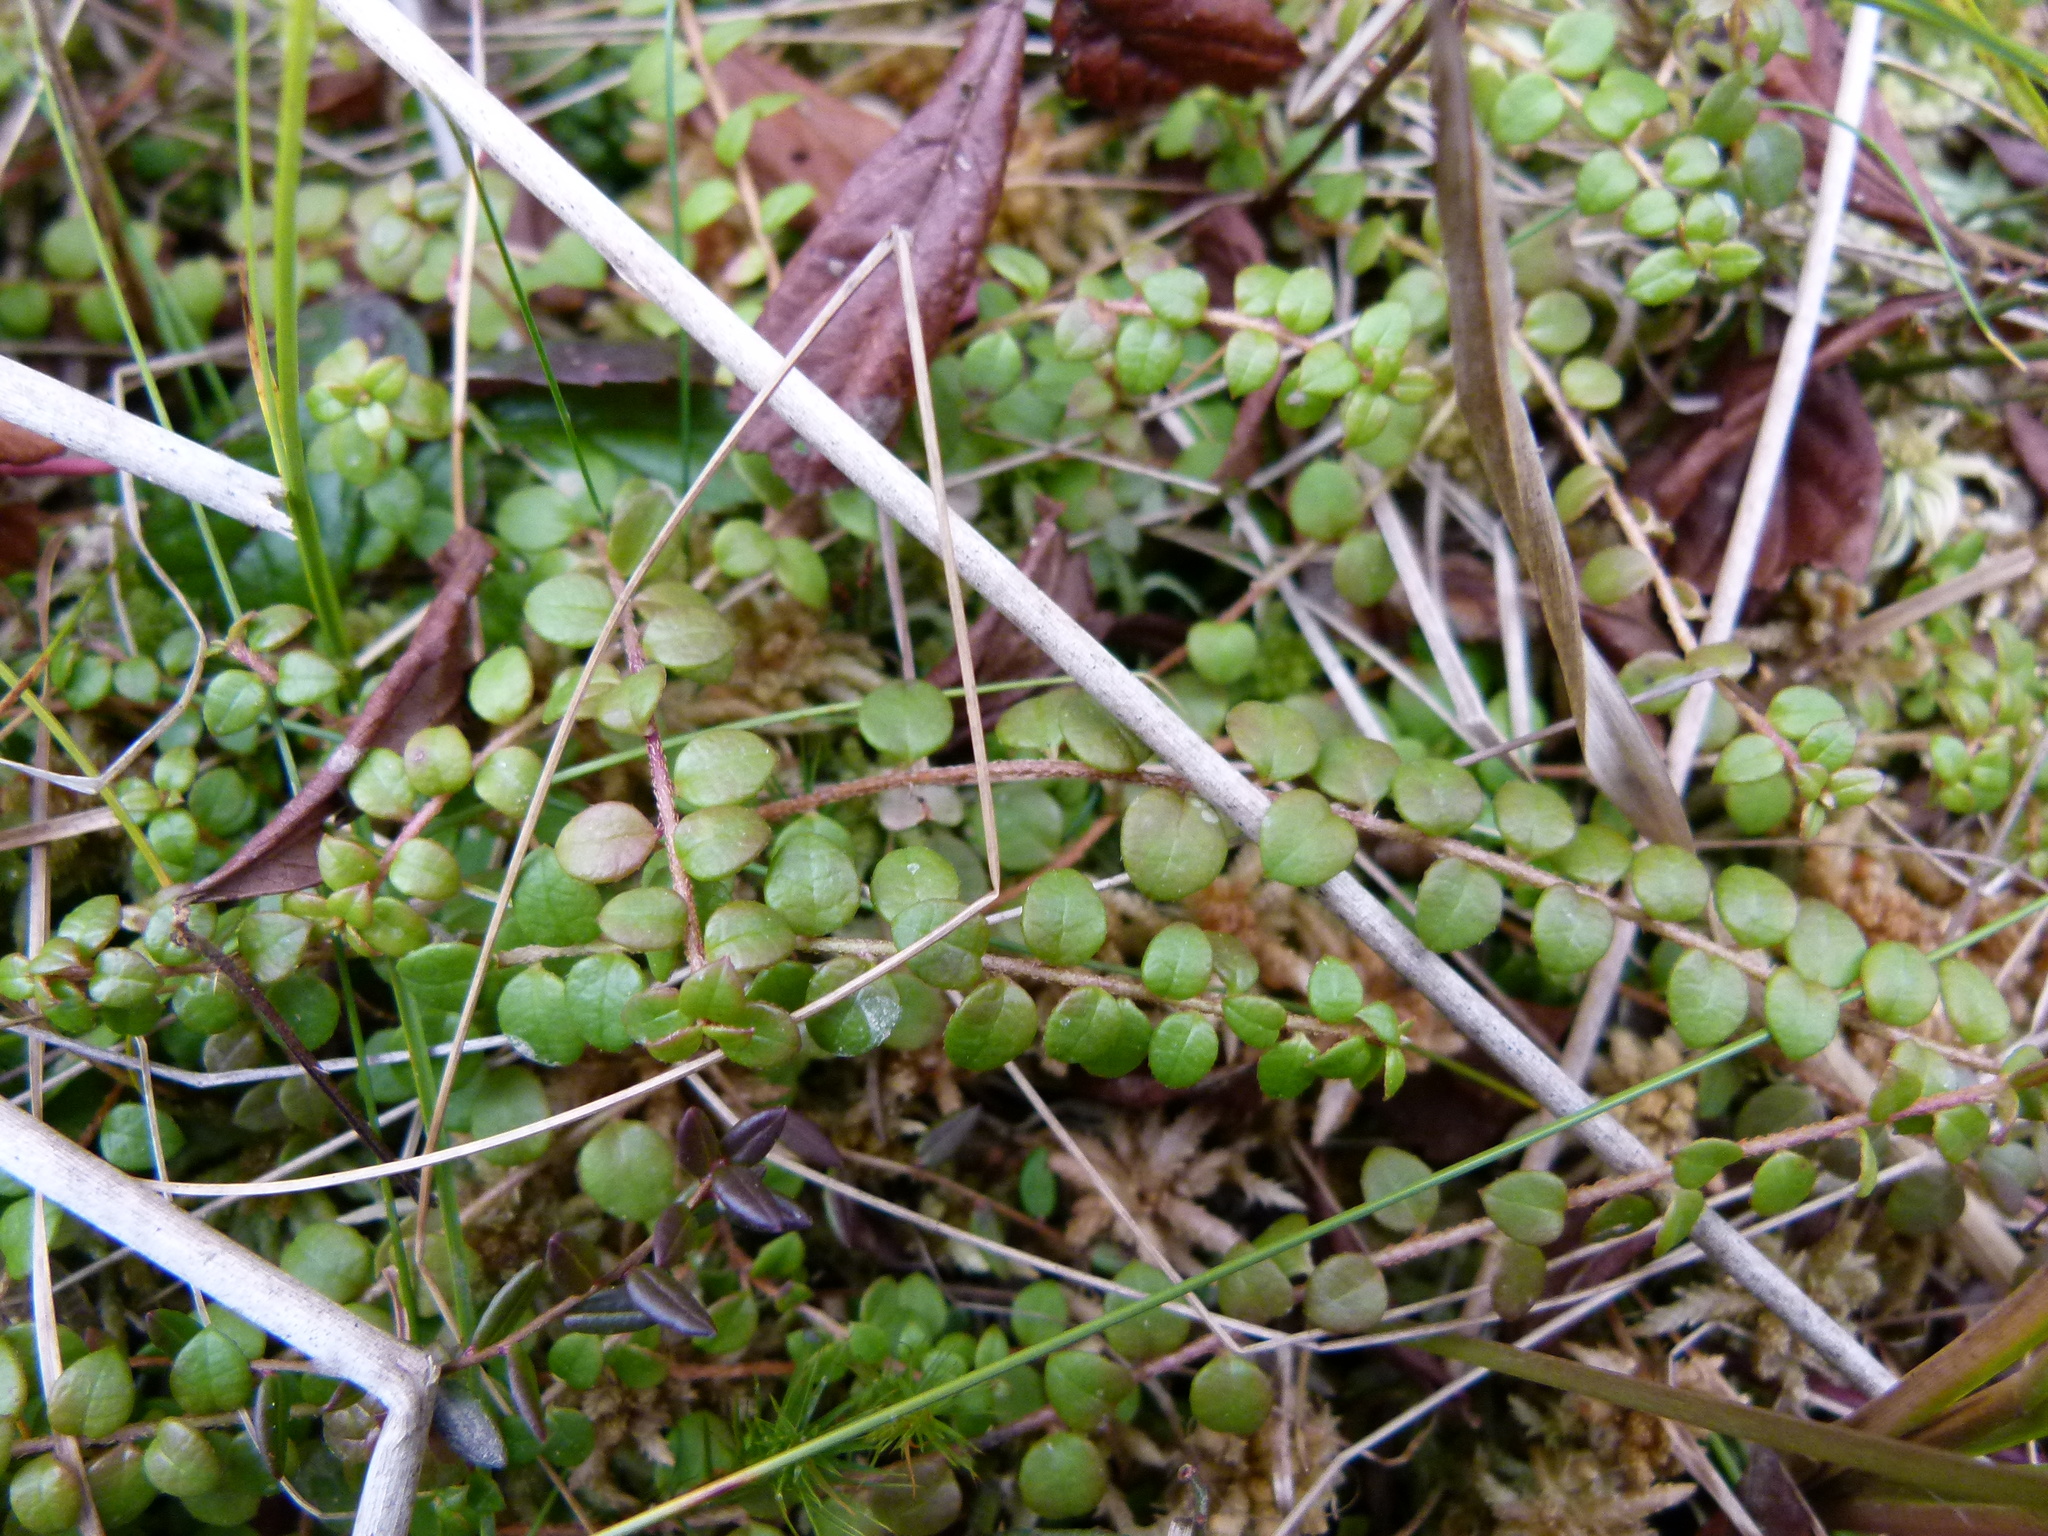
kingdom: Plantae
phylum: Tracheophyta
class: Magnoliopsida
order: Ericales
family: Ericaceae
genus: Gaultheria
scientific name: Gaultheria hispidula
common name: Cancer wintergreen
